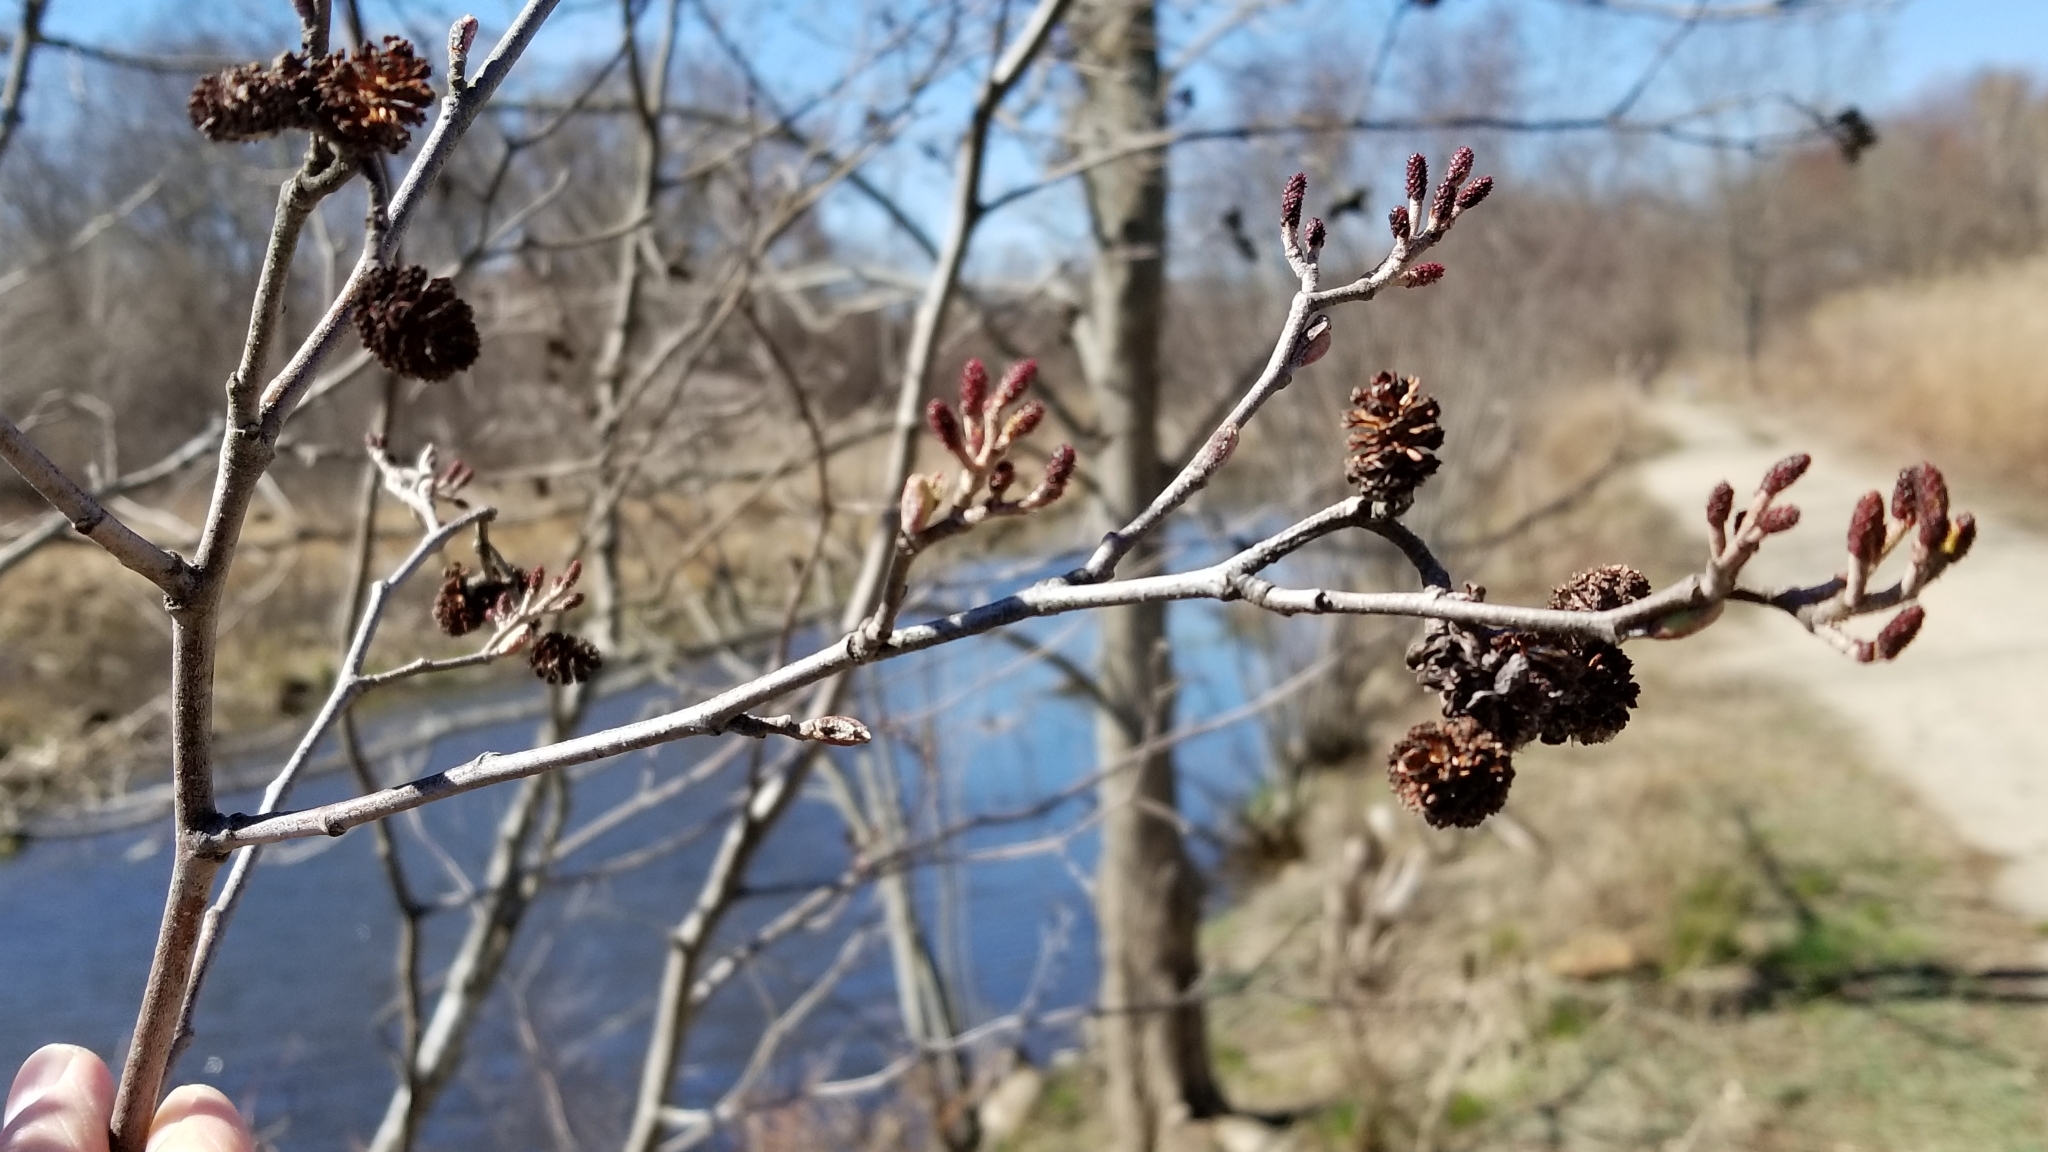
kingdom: Plantae
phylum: Tracheophyta
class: Magnoliopsida
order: Fagales
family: Betulaceae
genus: Alnus
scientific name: Alnus incana
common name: Grey alder
